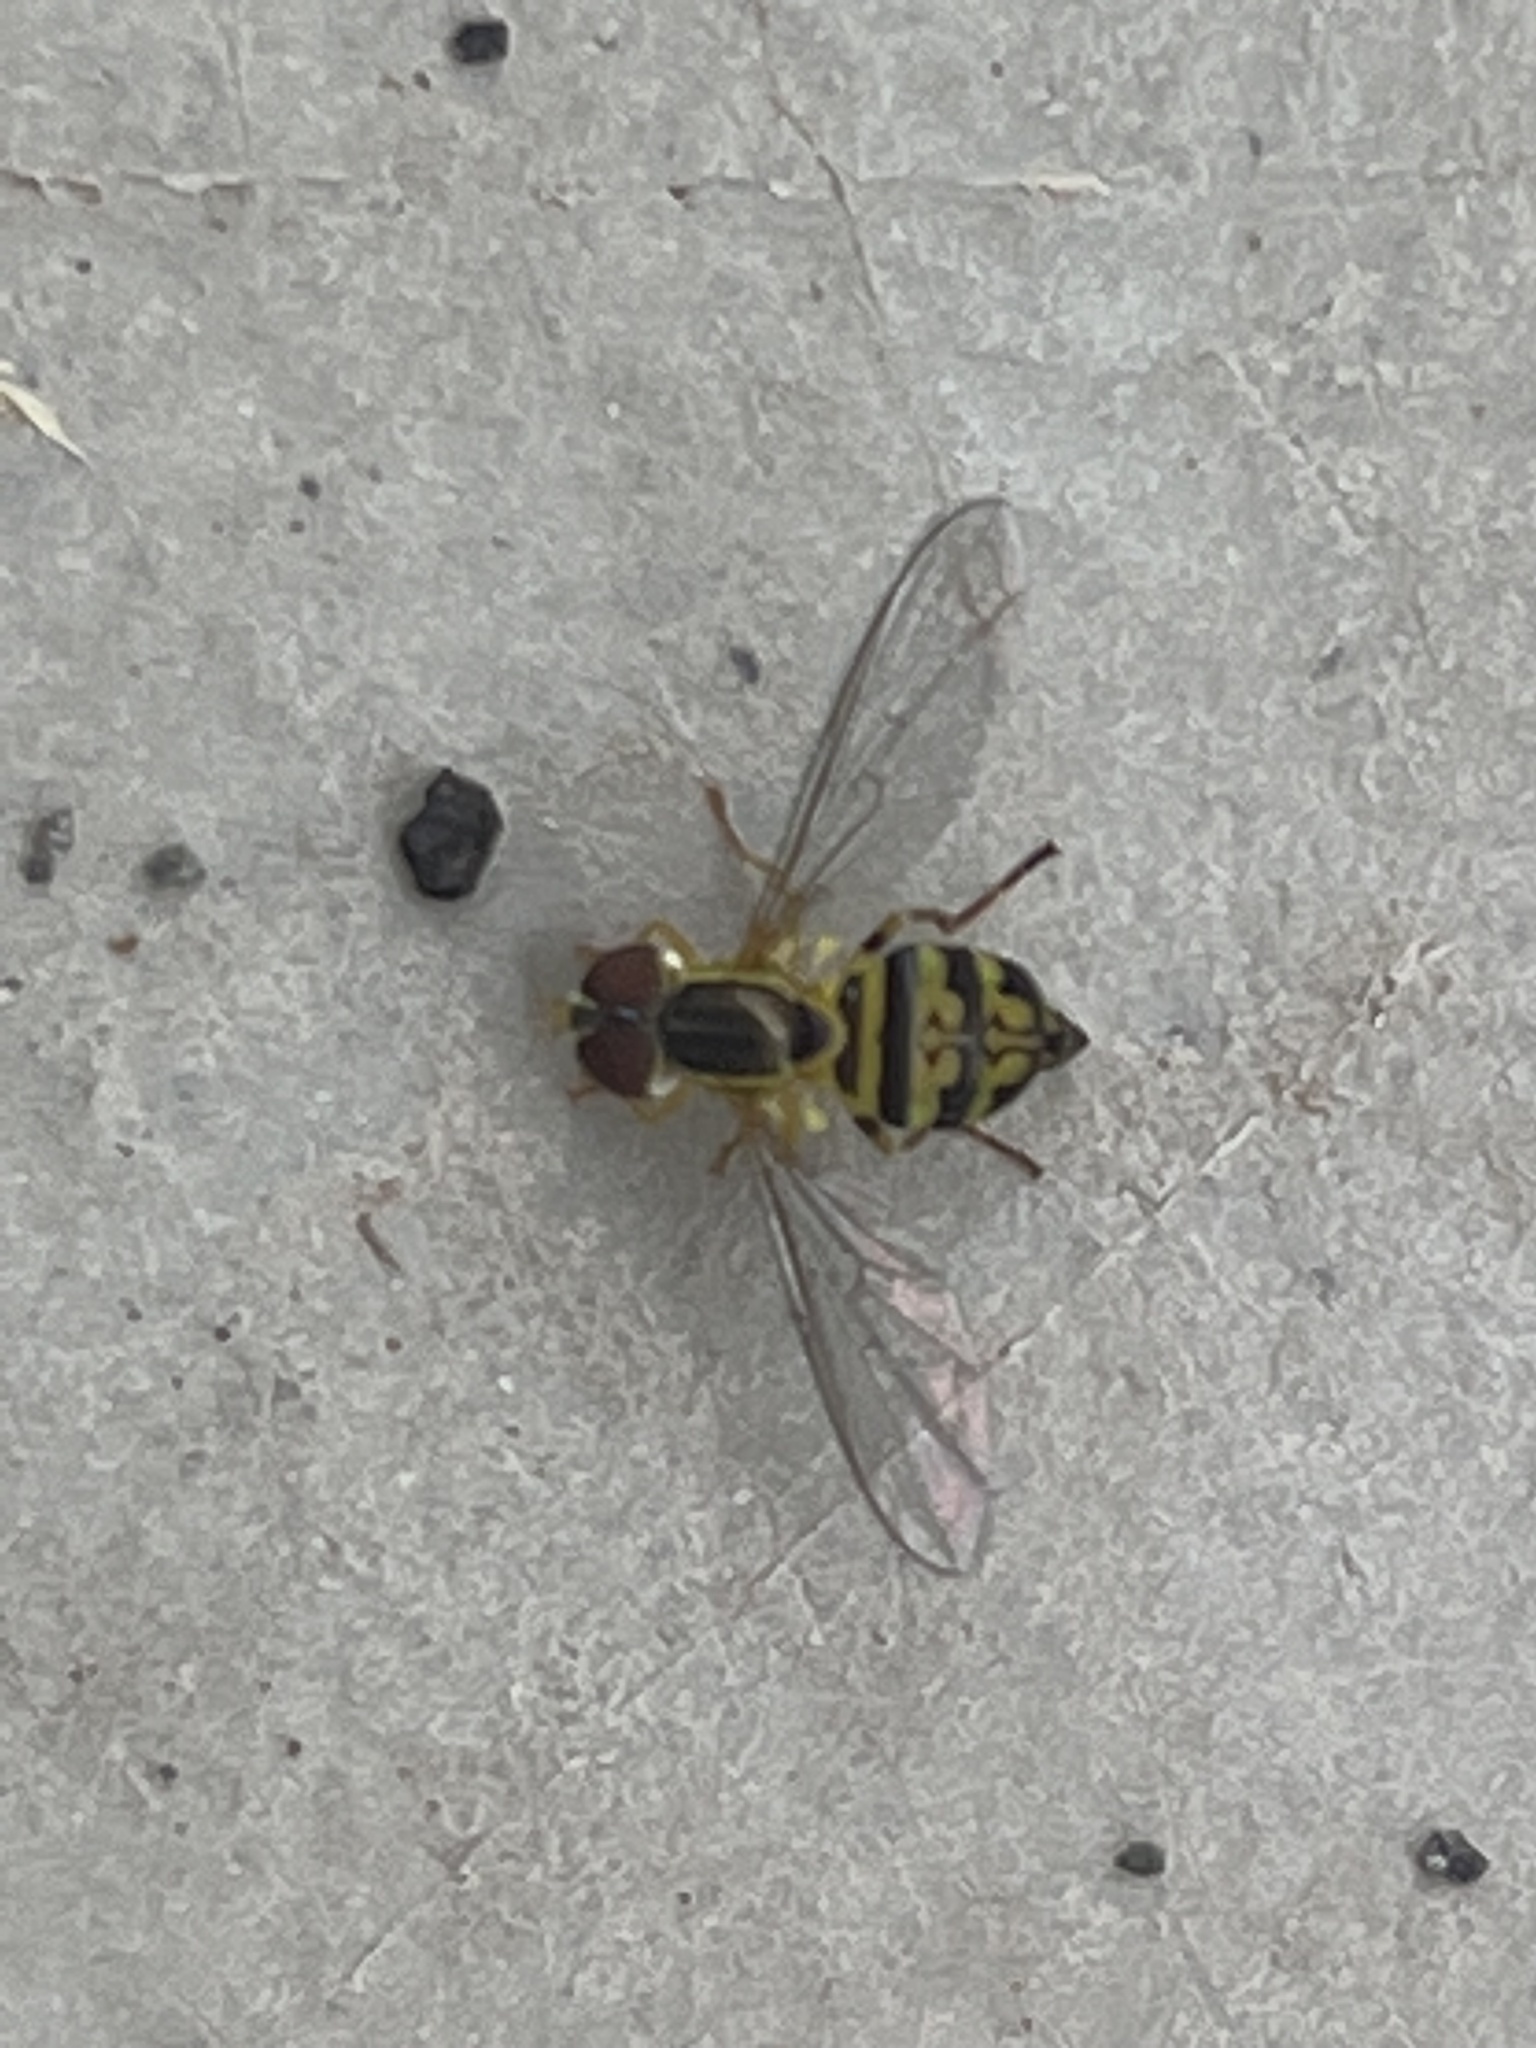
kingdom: Animalia
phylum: Arthropoda
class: Insecta
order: Diptera
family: Syrphidae
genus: Toxomerus
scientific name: Toxomerus geminatus
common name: Eastern calligrapher
